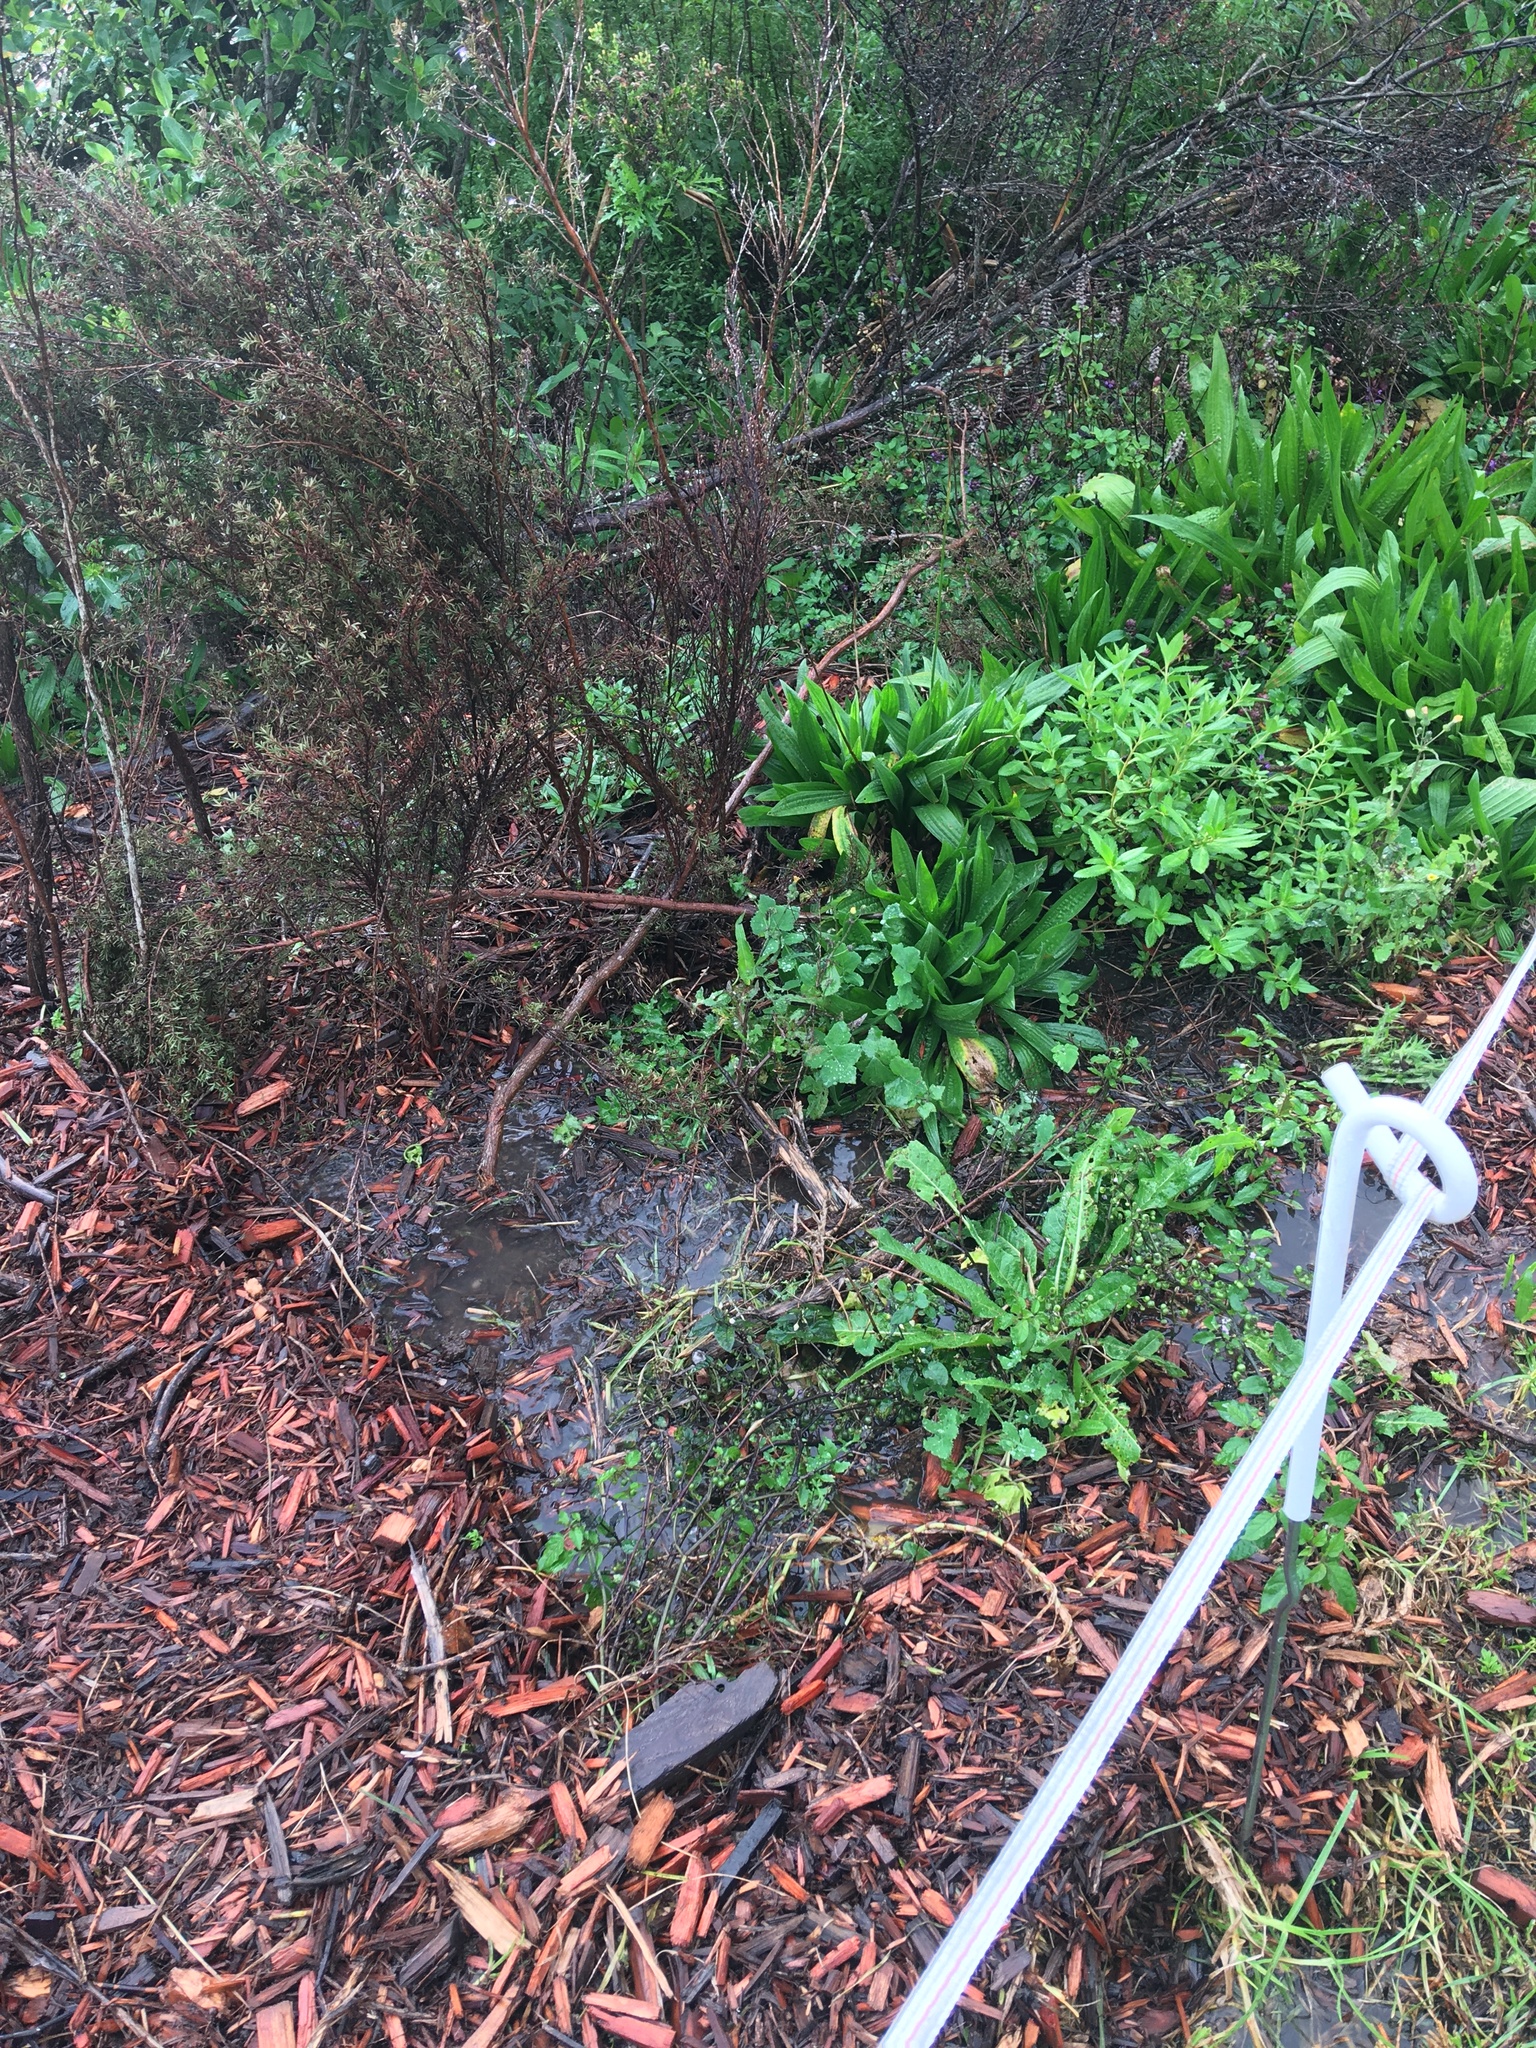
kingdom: Plantae
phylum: Tracheophyta
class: Magnoliopsida
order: Lamiales
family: Plantaginaceae
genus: Plantago
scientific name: Plantago lanceolata
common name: Ribwort plantain
